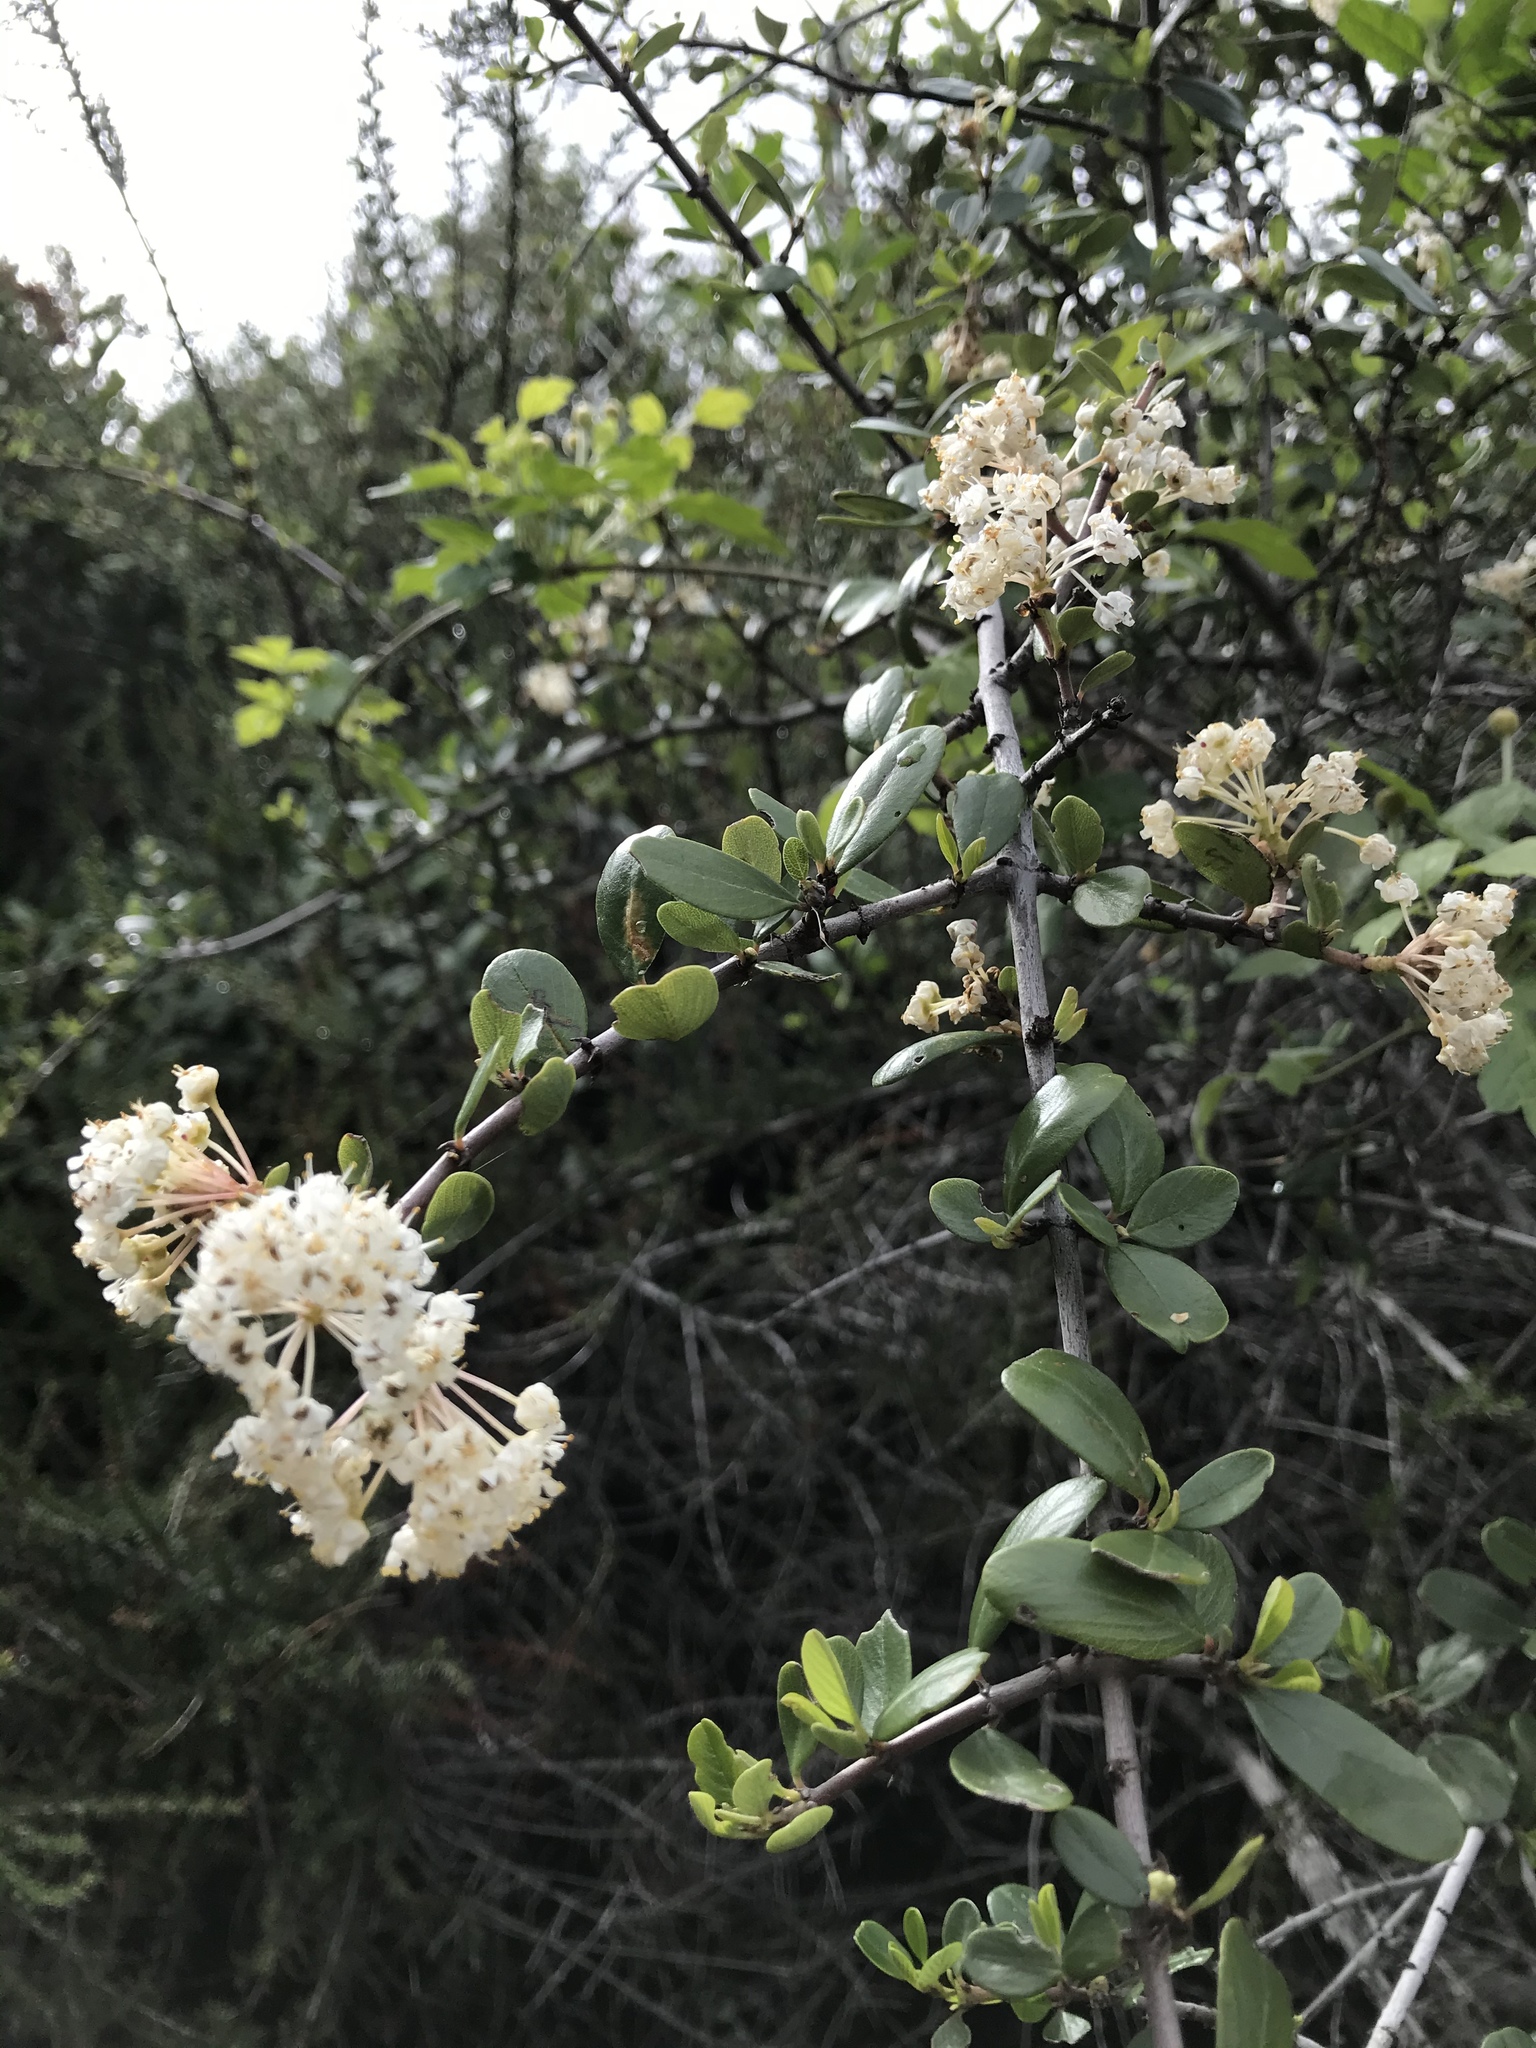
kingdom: Plantae
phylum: Tracheophyta
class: Magnoliopsida
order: Rosales
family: Rhamnaceae
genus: Ceanothus
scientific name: Ceanothus cuneatus
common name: Cuneate ceanothus
